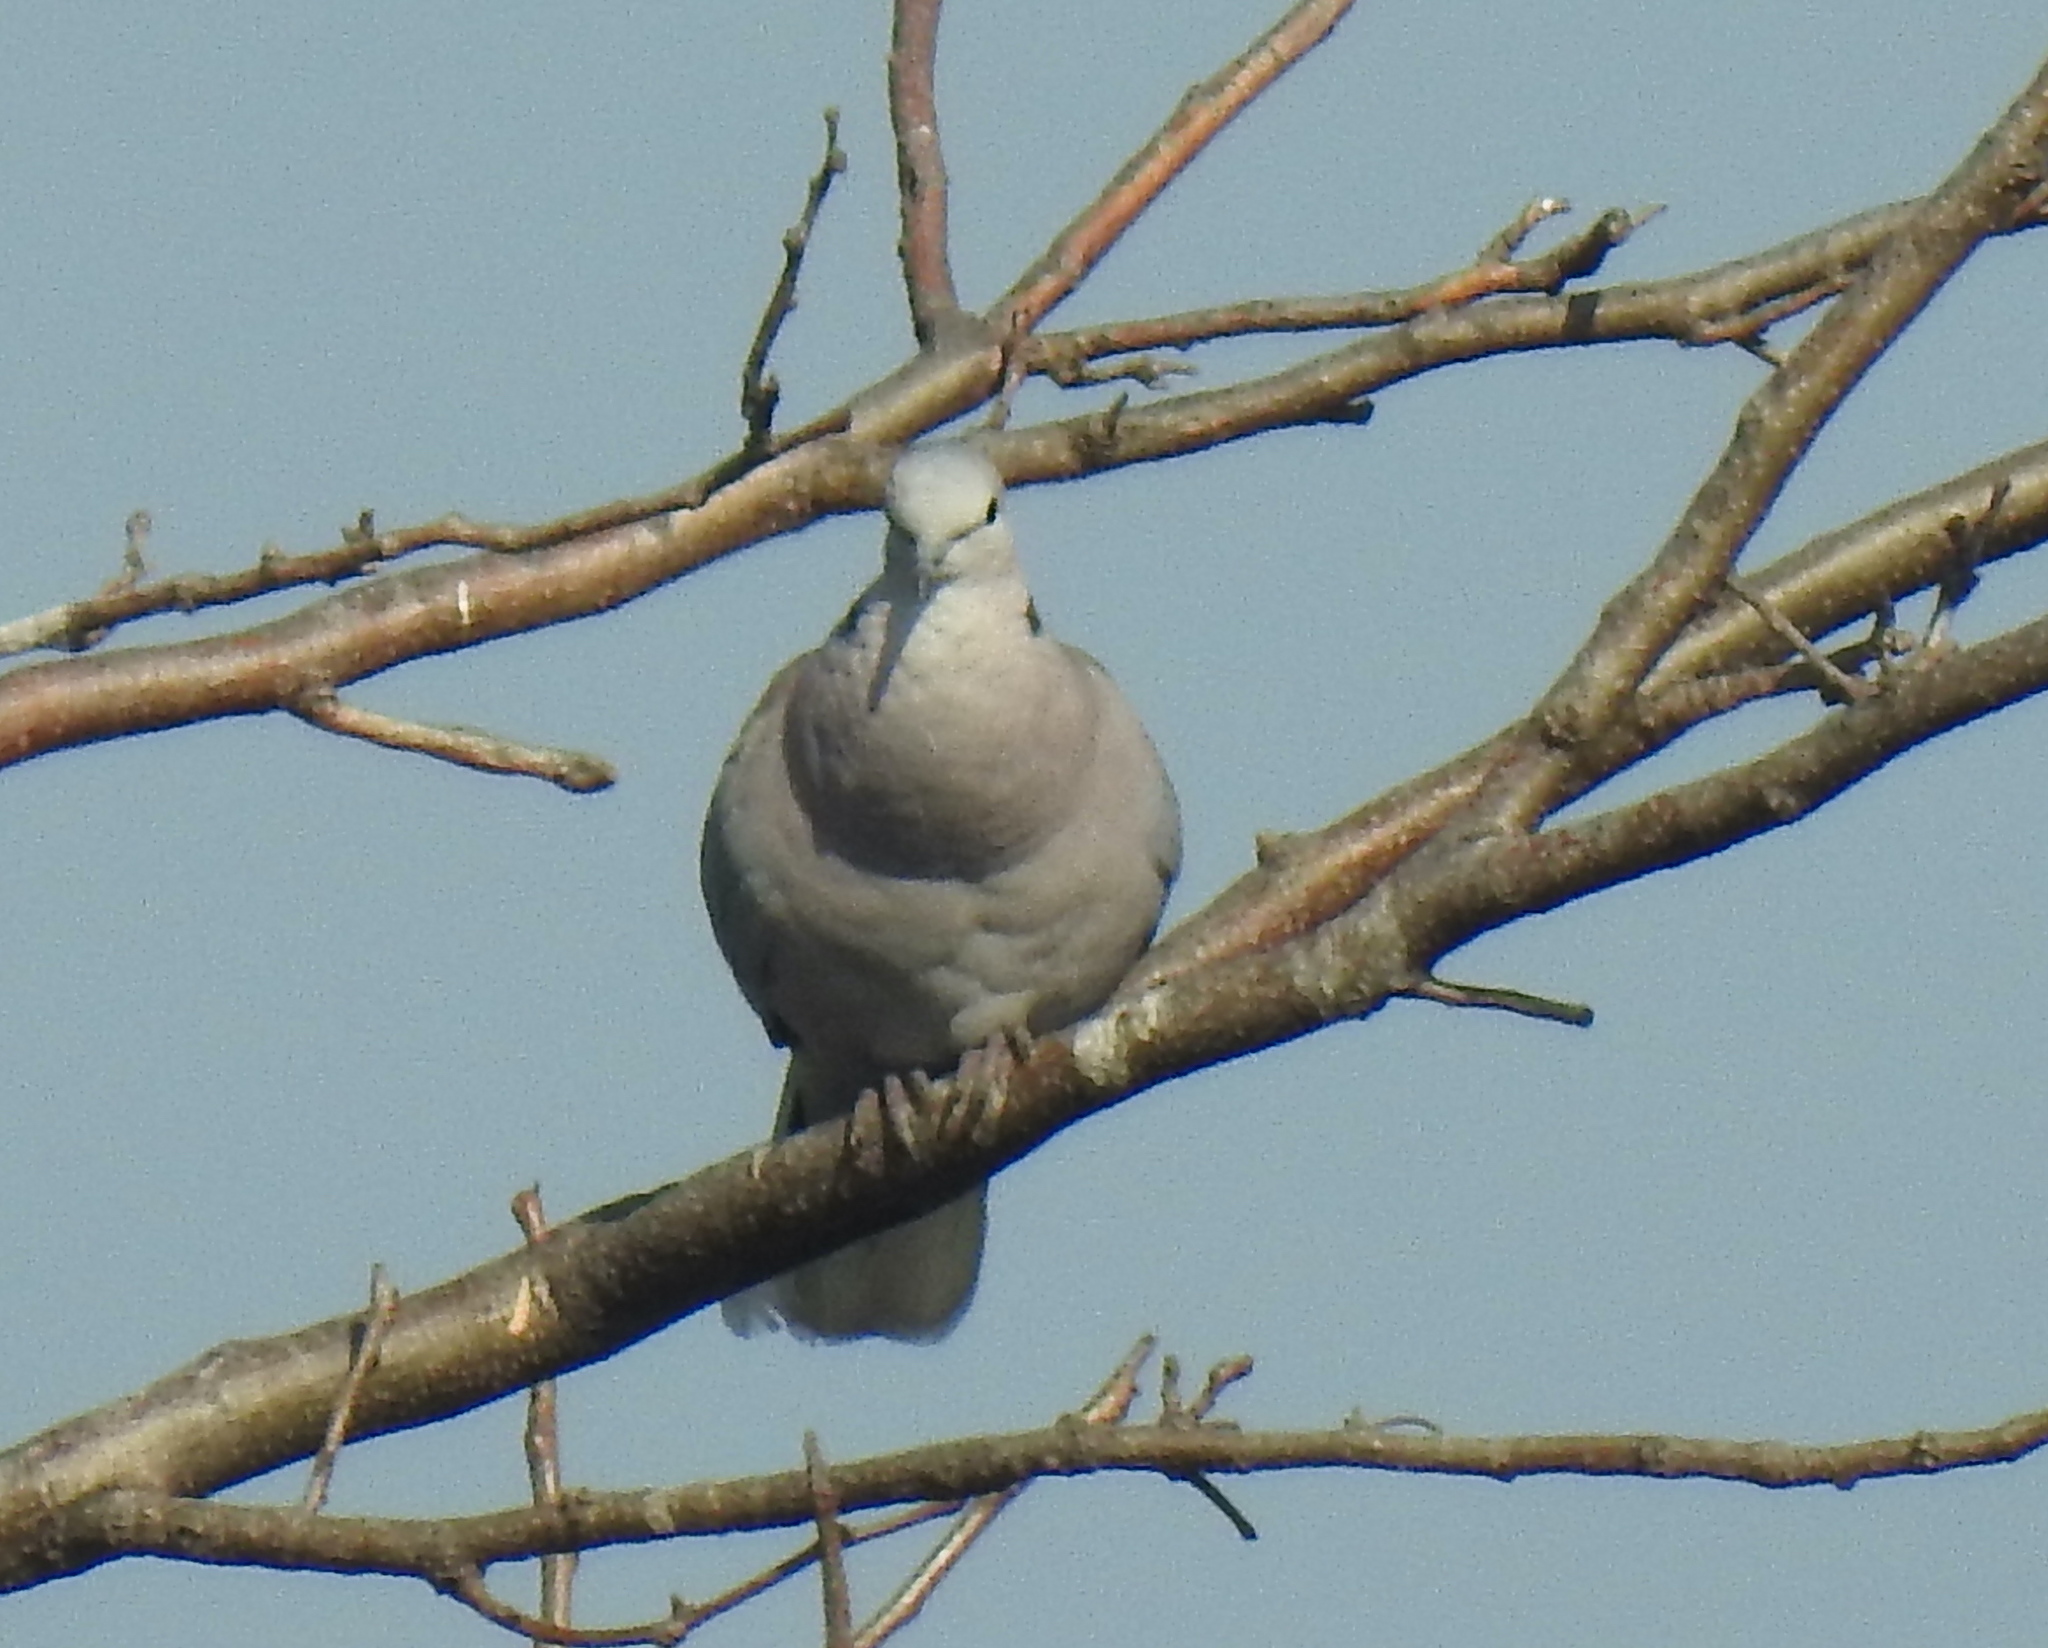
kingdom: Animalia
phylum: Chordata
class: Aves
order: Columbiformes
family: Columbidae
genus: Streptopelia
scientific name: Streptopelia capicola
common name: Ring-necked dove
